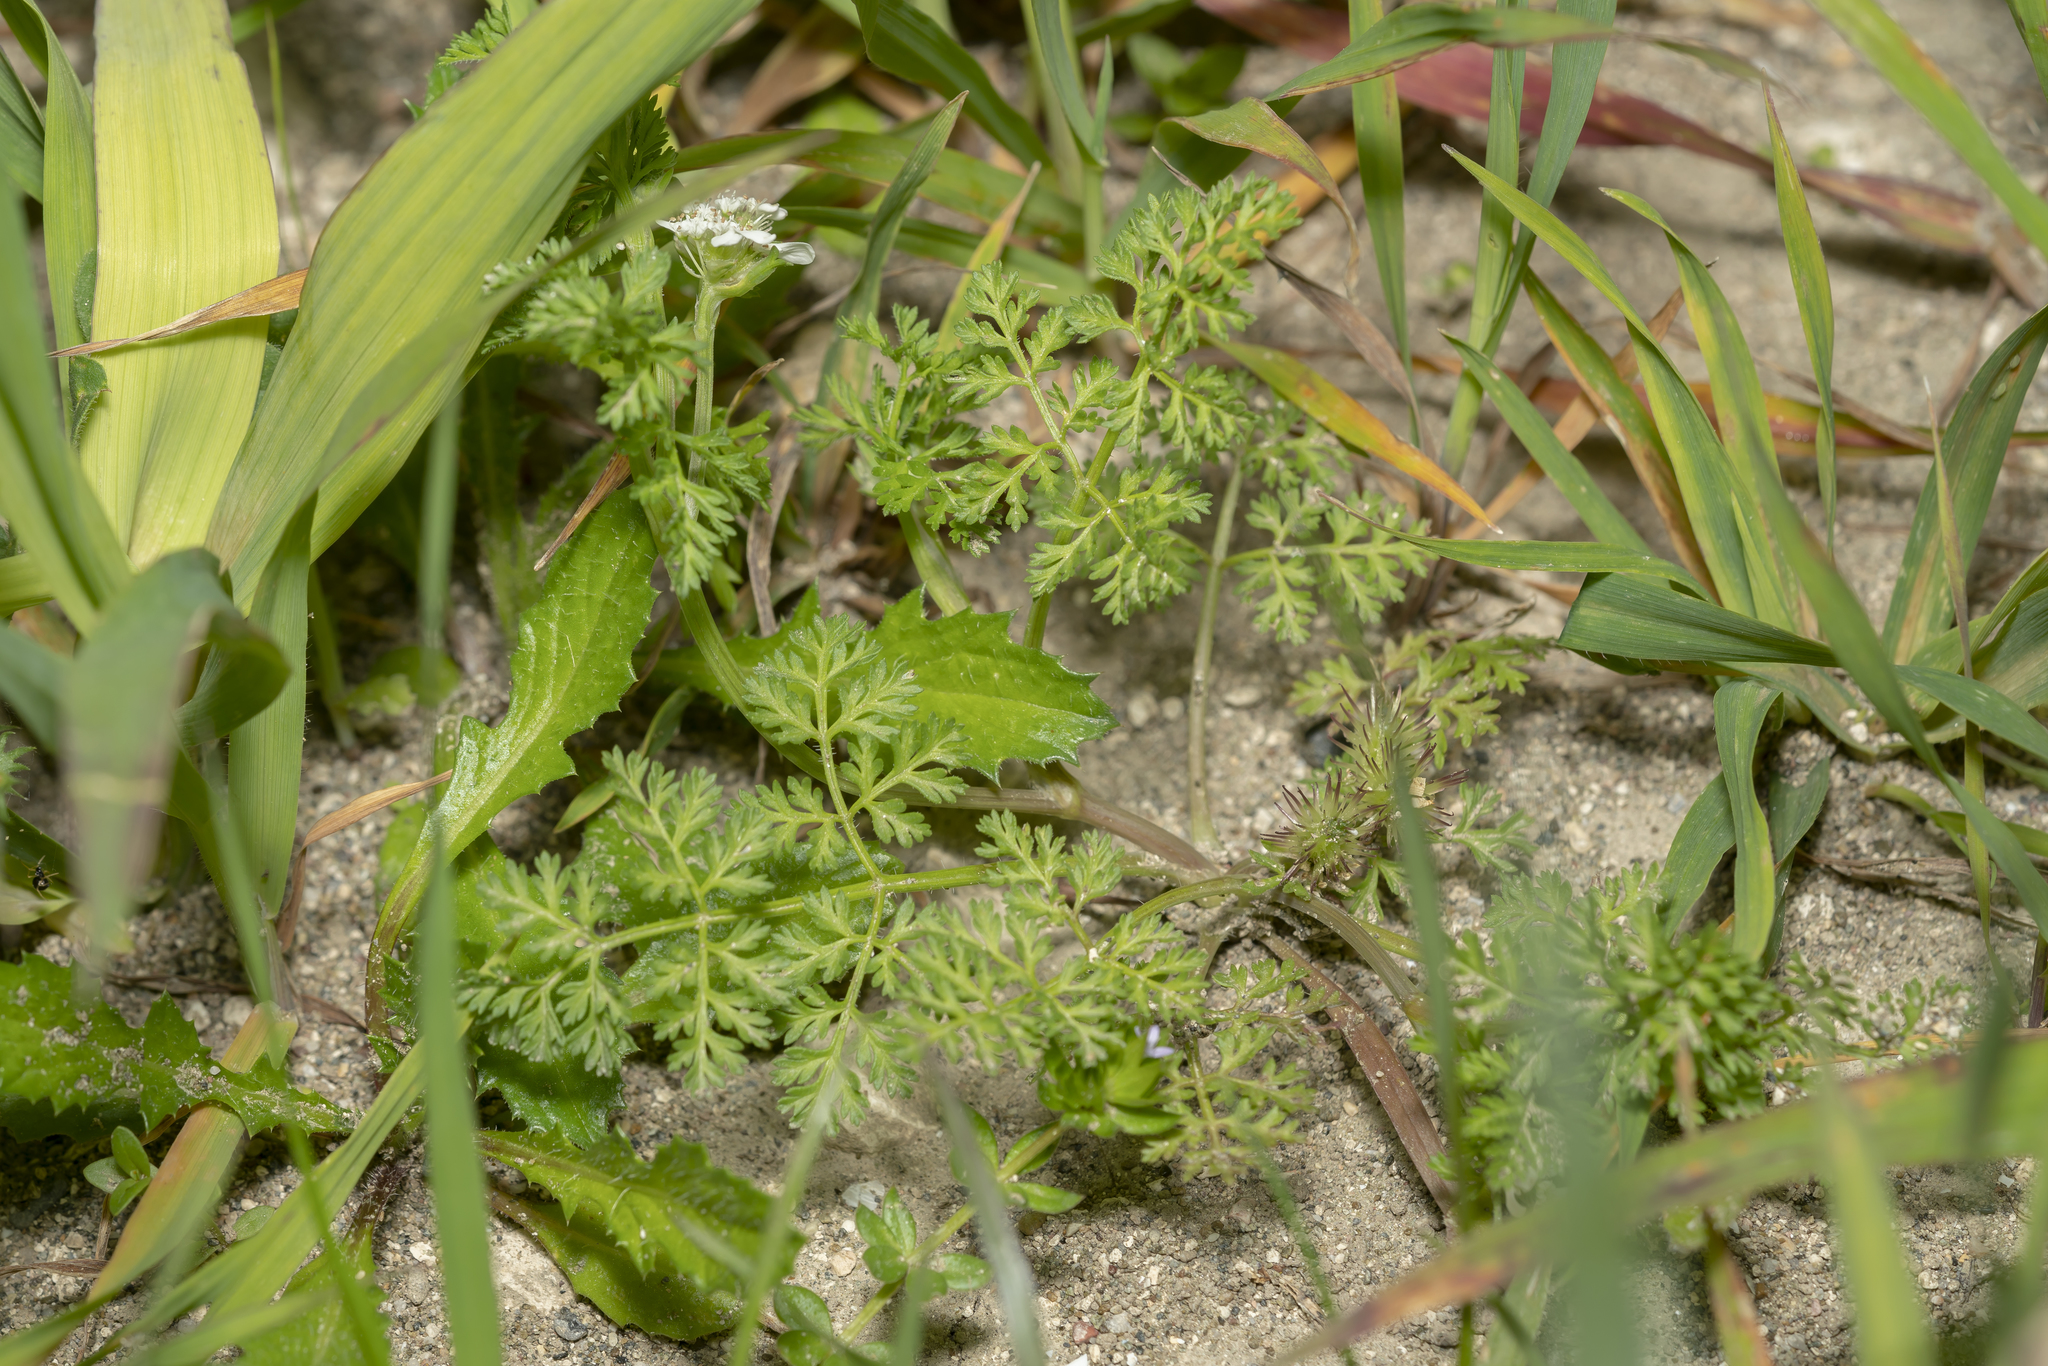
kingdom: Plantae
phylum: Tracheophyta
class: Magnoliopsida
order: Apiales
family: Apiaceae
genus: Orlaya
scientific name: Orlaya daucoides
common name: Flat-fruit orlaya
